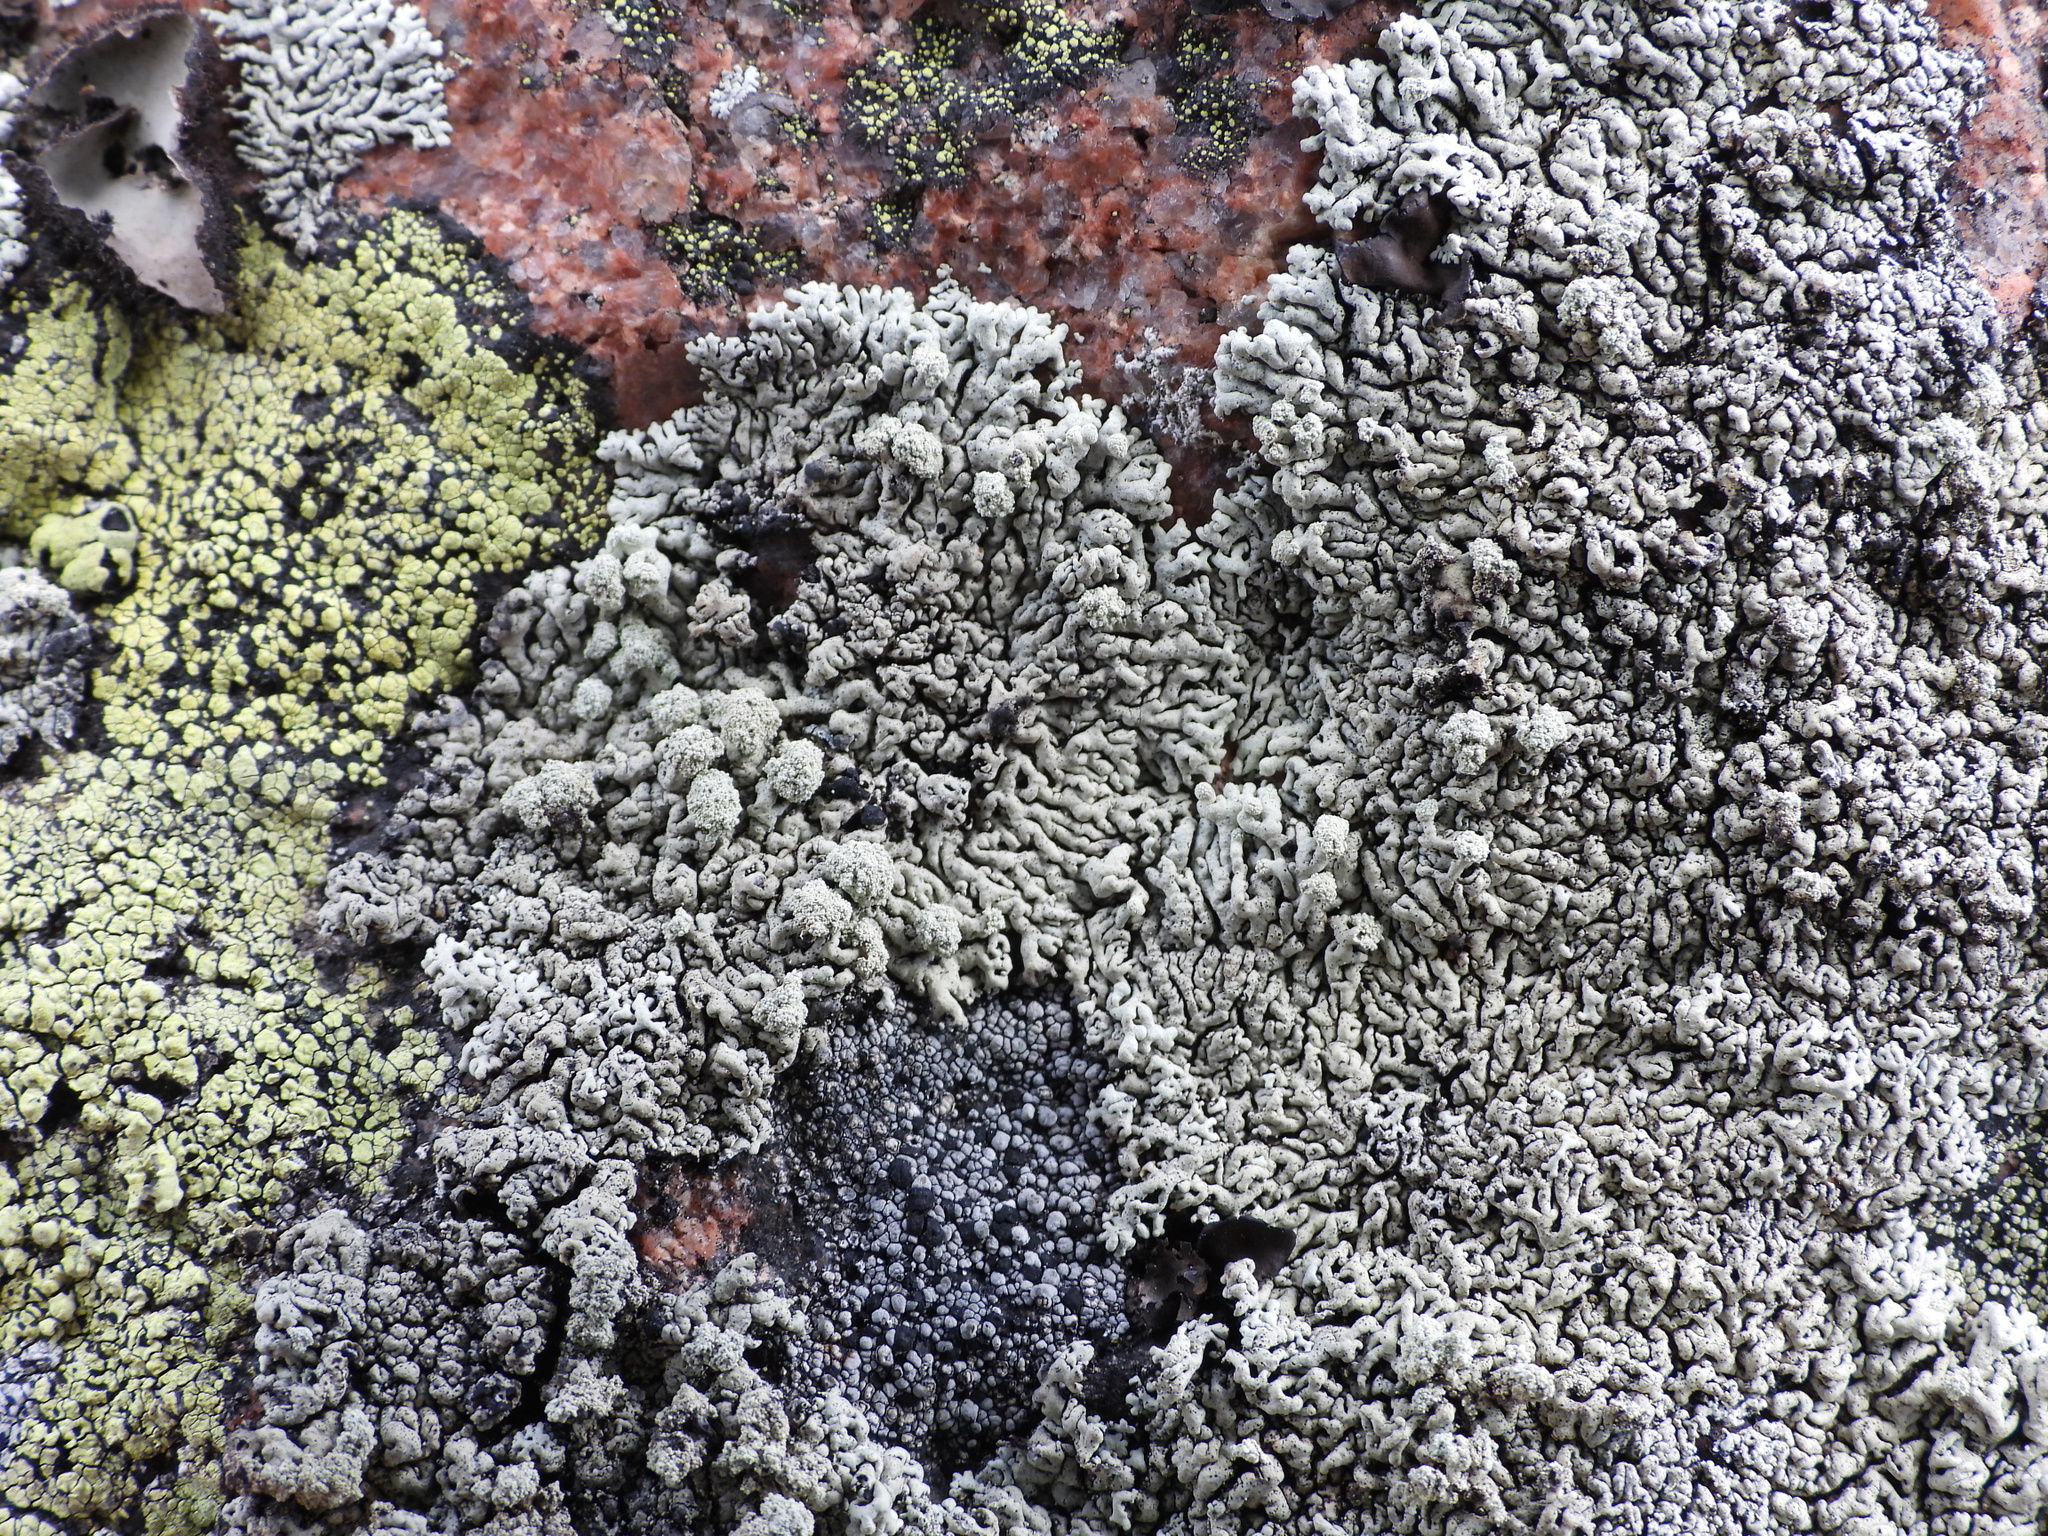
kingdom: Fungi
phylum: Ascomycota
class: Lecanoromycetes
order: Lecanorales
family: Parmeliaceae
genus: Arctoparmelia
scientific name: Arctoparmelia incurva
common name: Bent ring lichen
